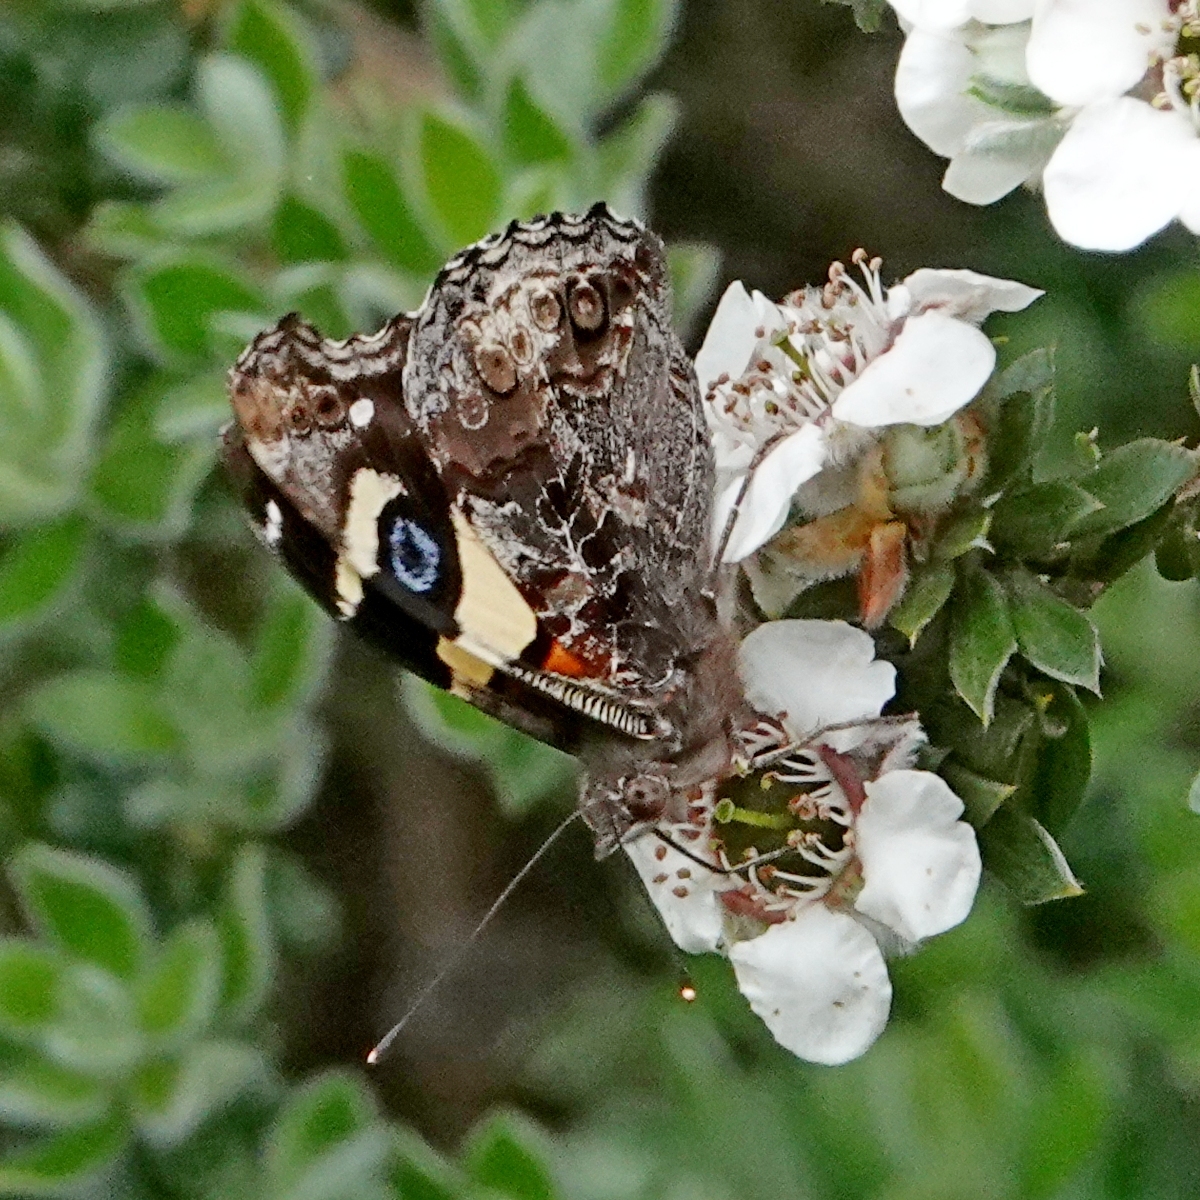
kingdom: Animalia
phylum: Arthropoda
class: Insecta
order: Lepidoptera
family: Nymphalidae
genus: Vanessa
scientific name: Vanessa itea
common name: Yellow admiral
